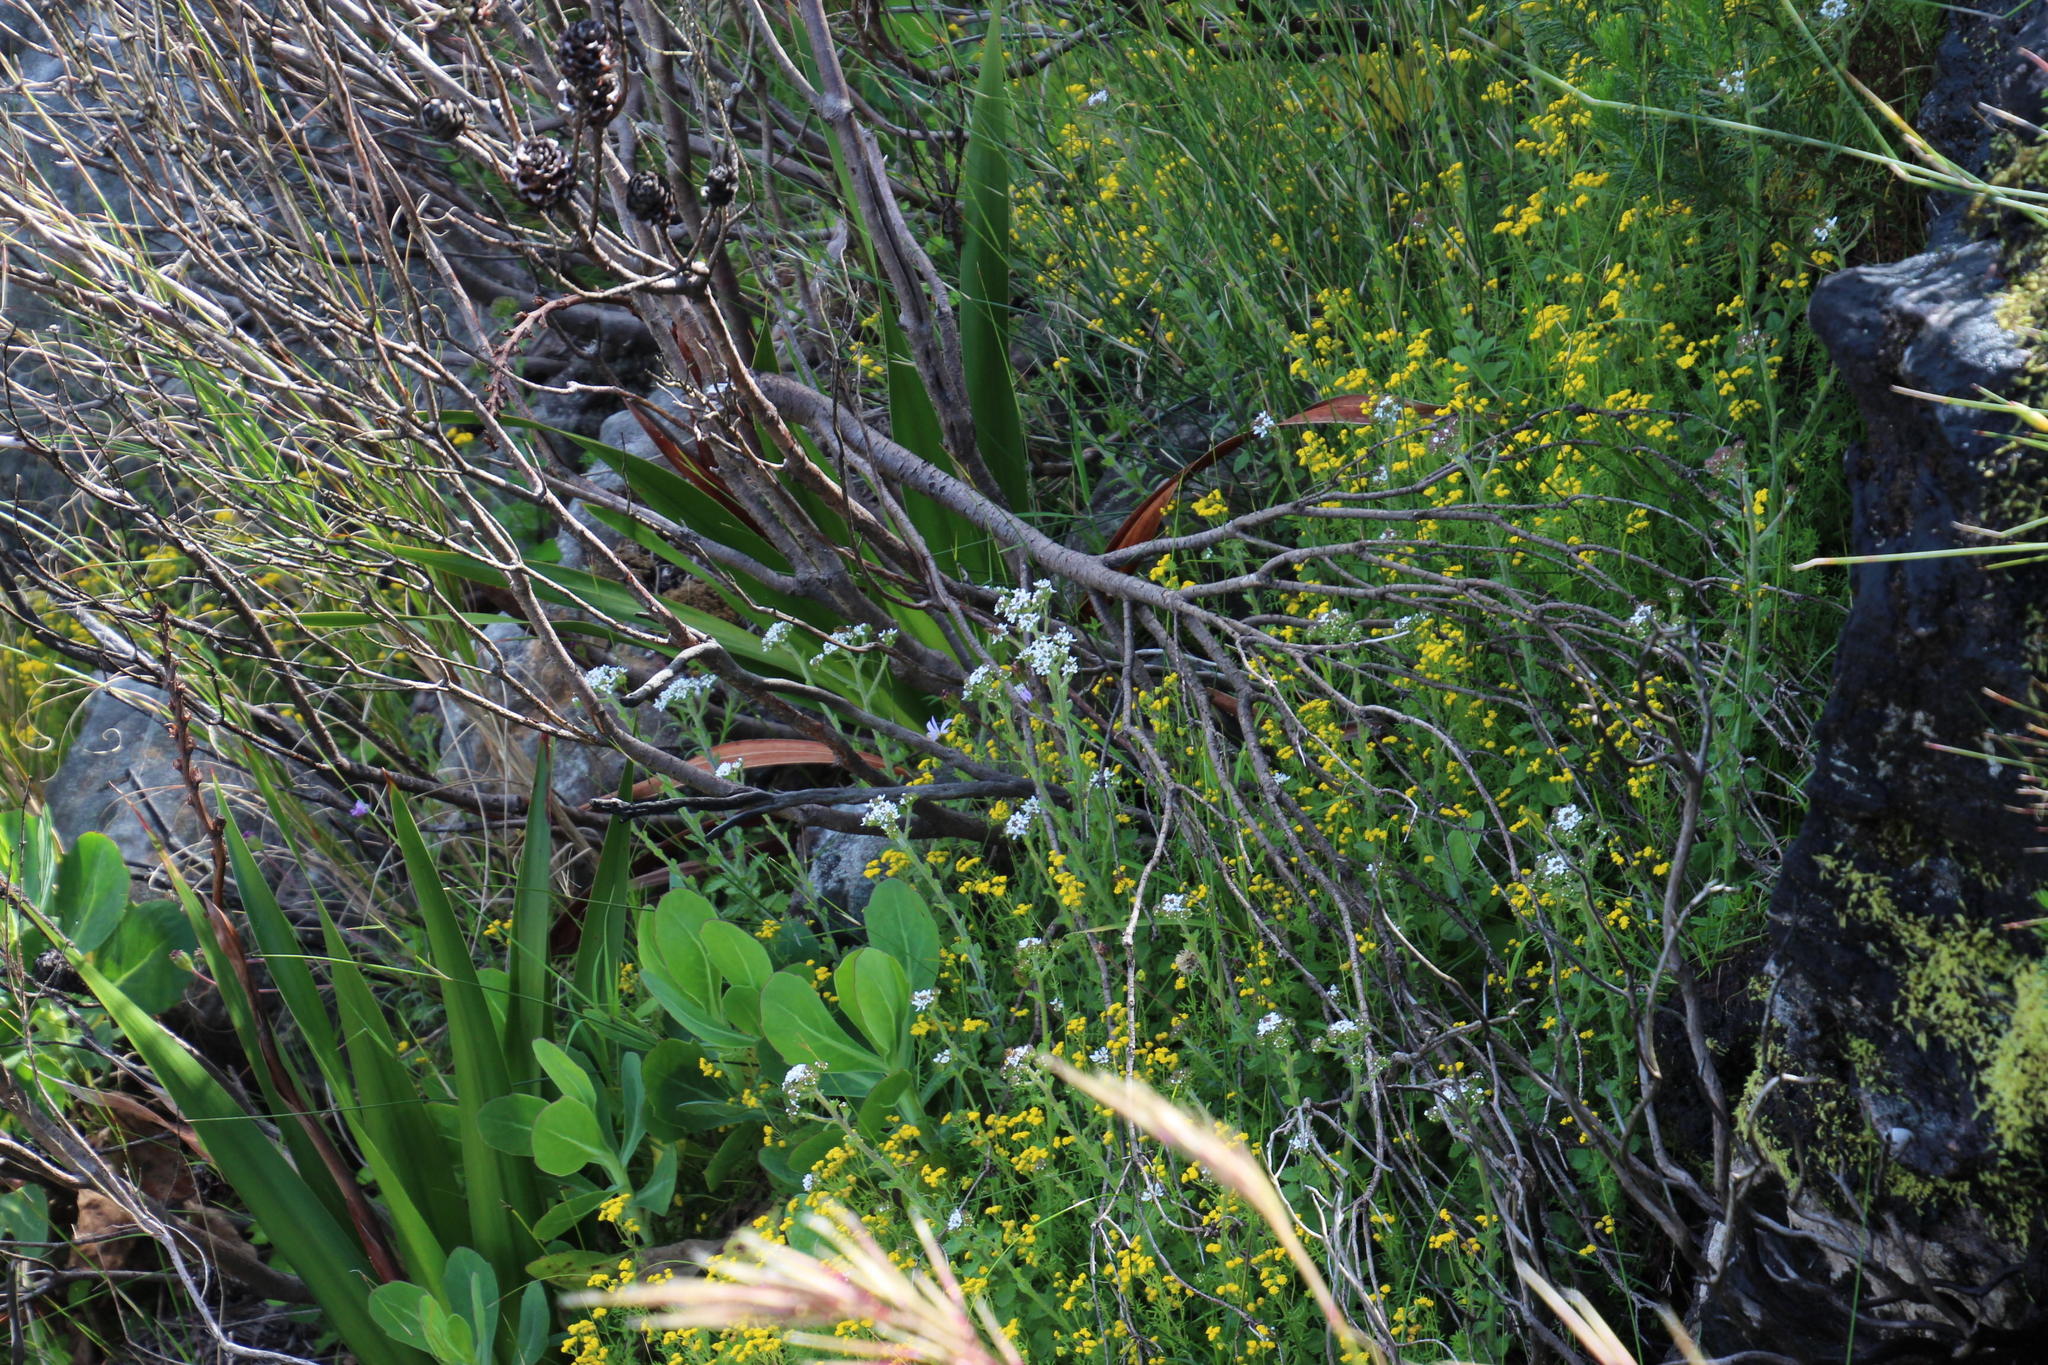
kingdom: Plantae
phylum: Tracheophyta
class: Magnoliopsida
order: Lamiales
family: Scrophulariaceae
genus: Pseudoselago
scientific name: Pseudoselago peninsulae
